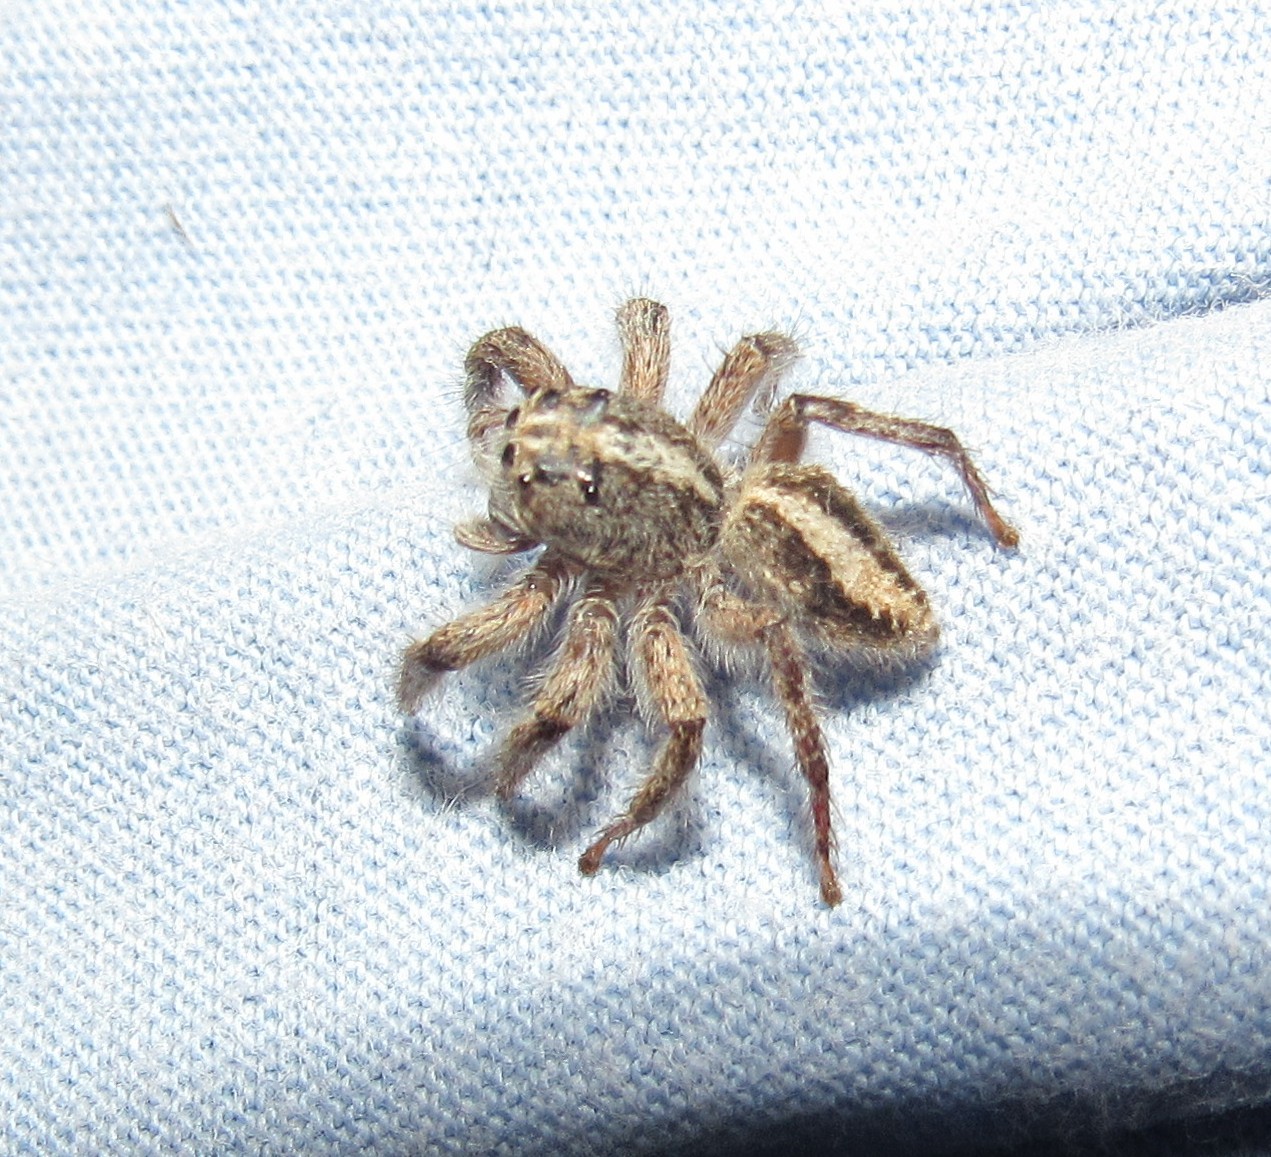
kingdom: Animalia
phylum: Arthropoda
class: Arachnida
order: Araneae
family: Salticidae
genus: Megafreya
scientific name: Megafreya sutrix
